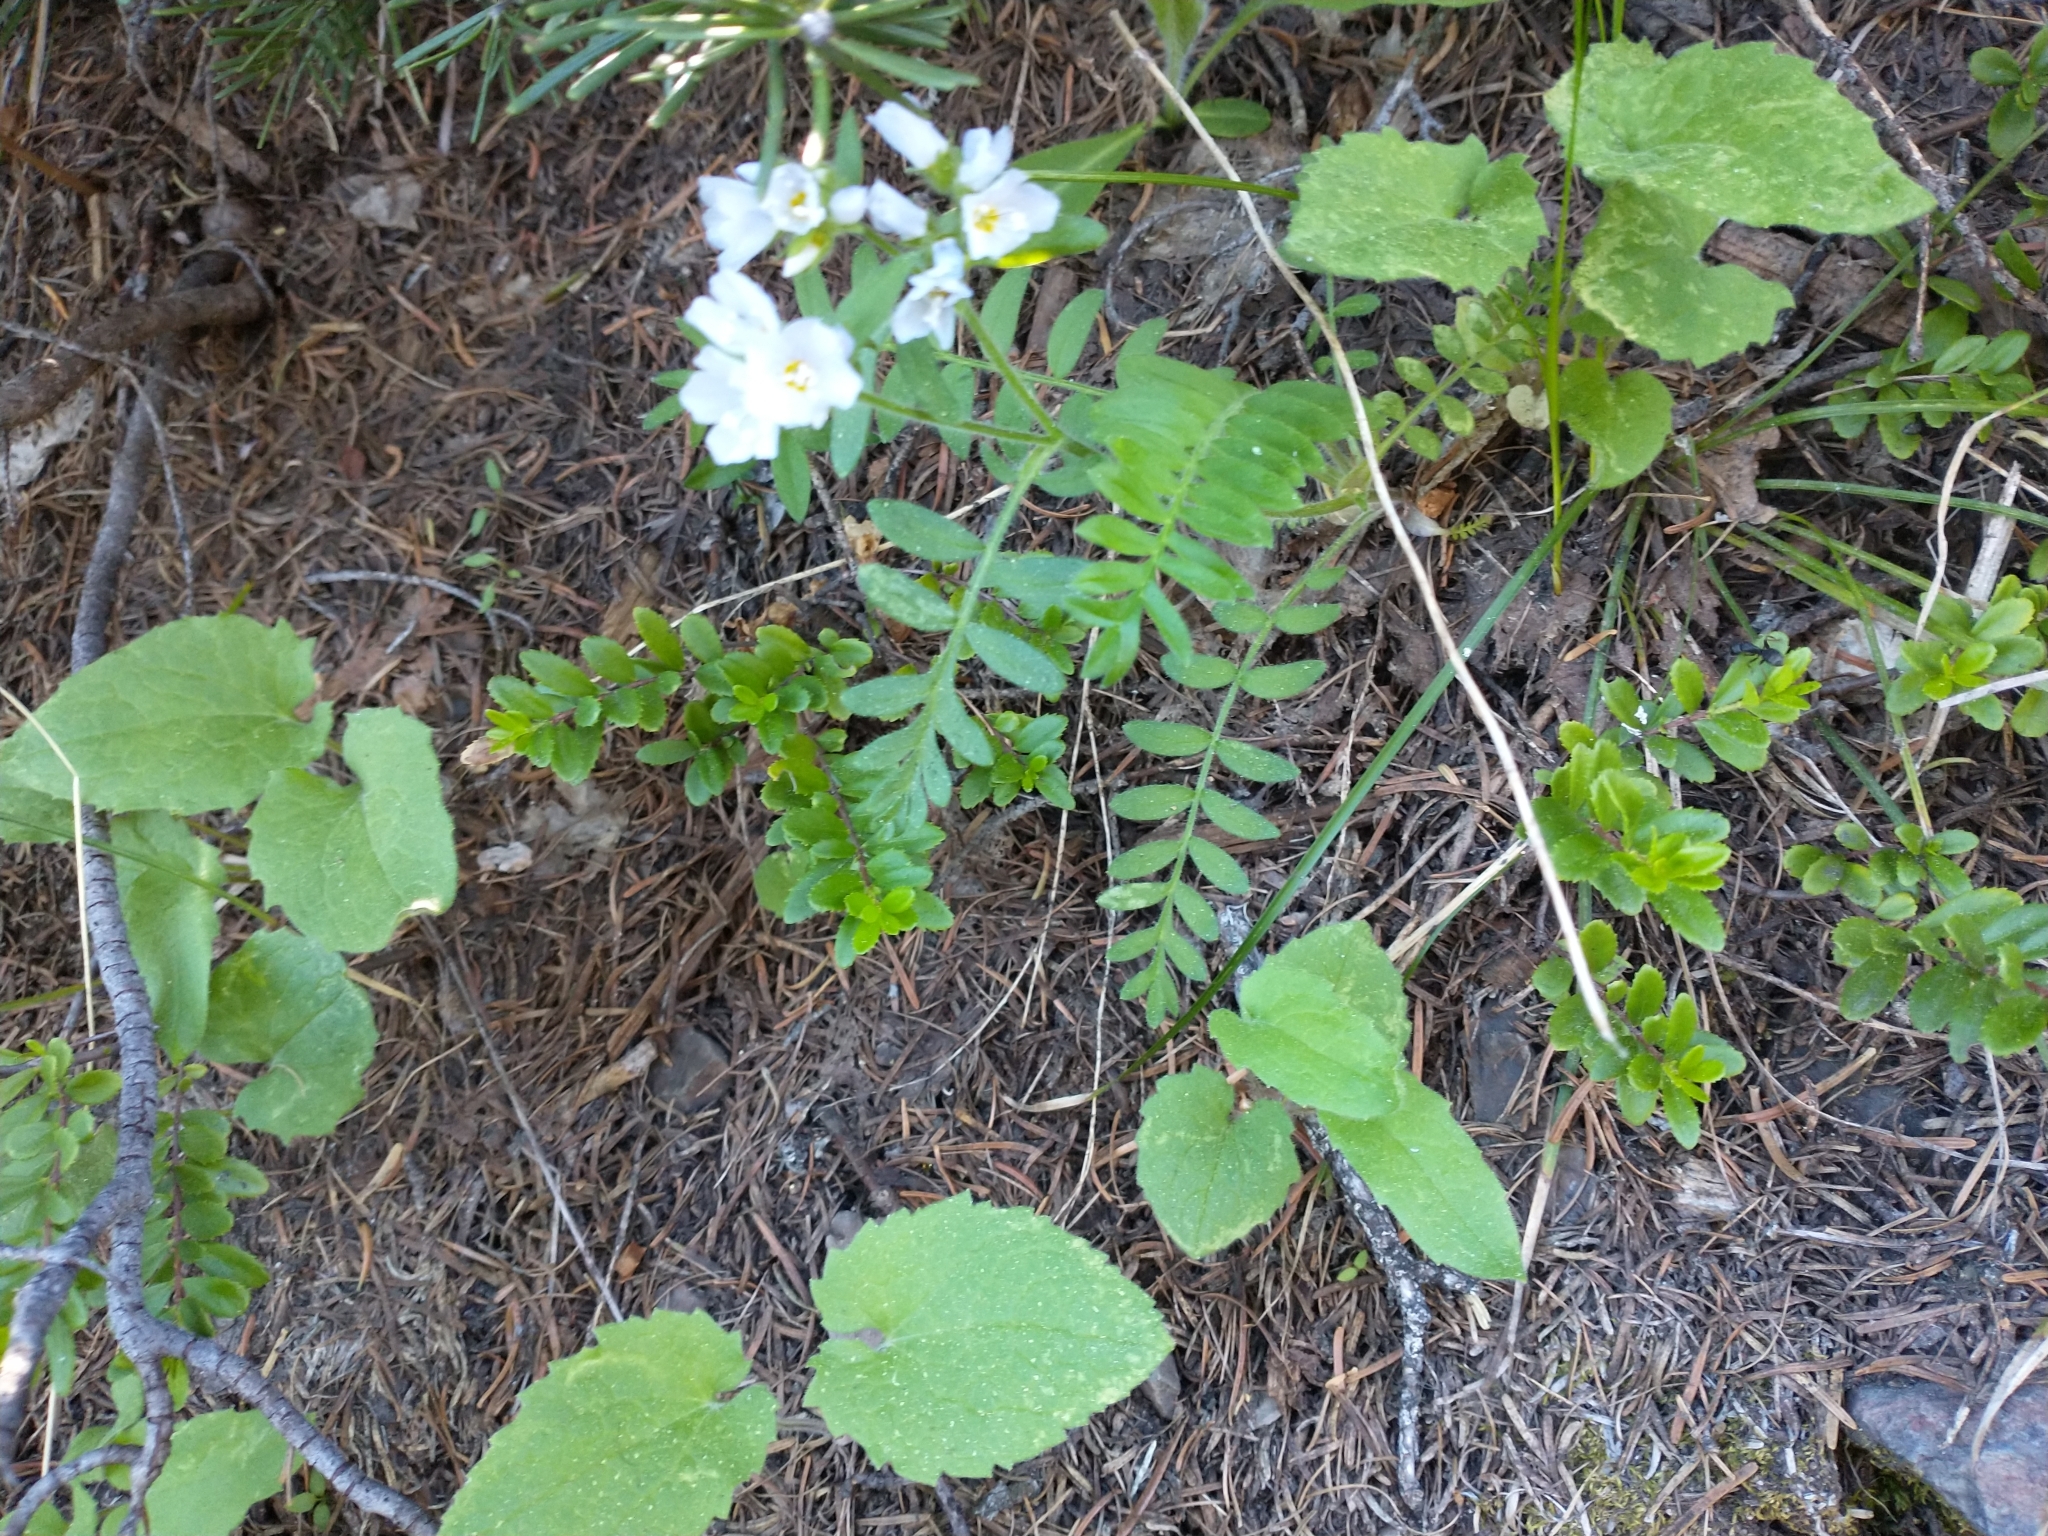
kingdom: Plantae
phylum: Tracheophyta
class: Magnoliopsida
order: Ericales
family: Polemoniaceae
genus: Polemonium
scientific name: Polemonium californicum
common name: California jacob's ladder
